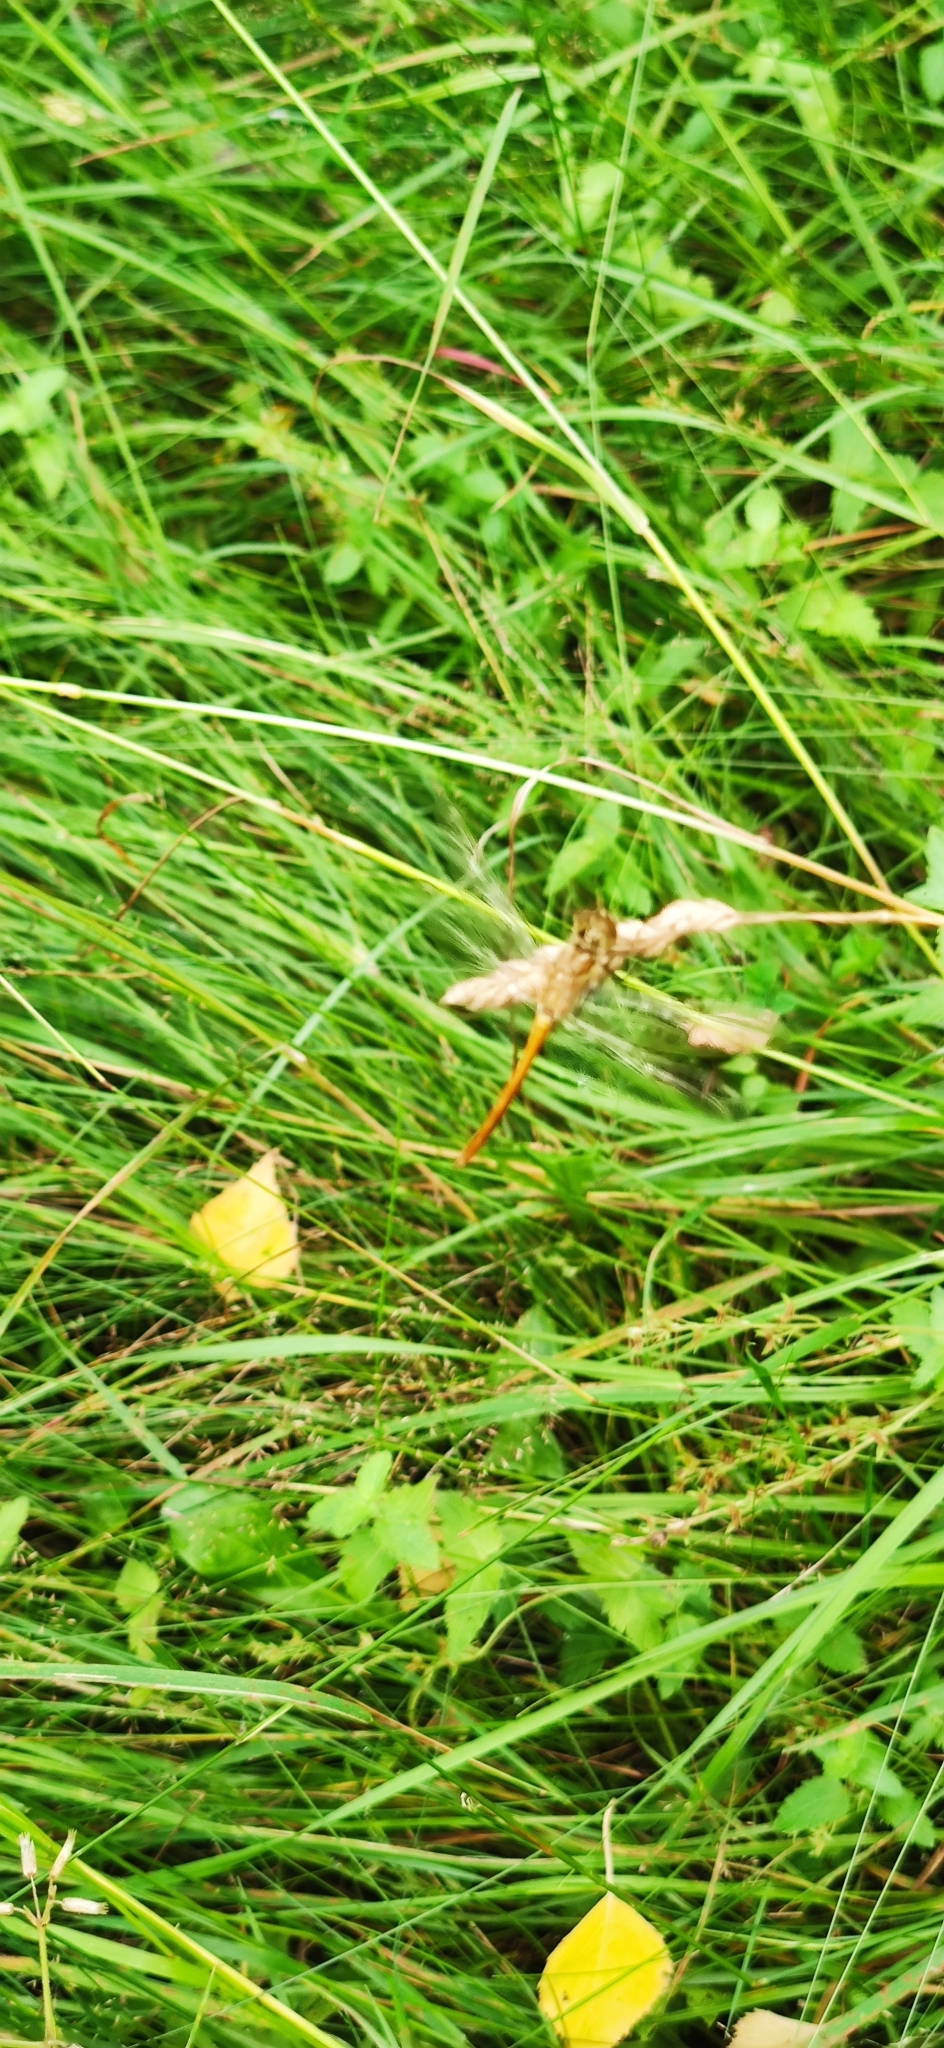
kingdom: Animalia
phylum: Arthropoda
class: Insecta
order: Odonata
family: Libellulidae
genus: Sympetrum
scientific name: Sympetrum vulgatum
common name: Vagrant darter
